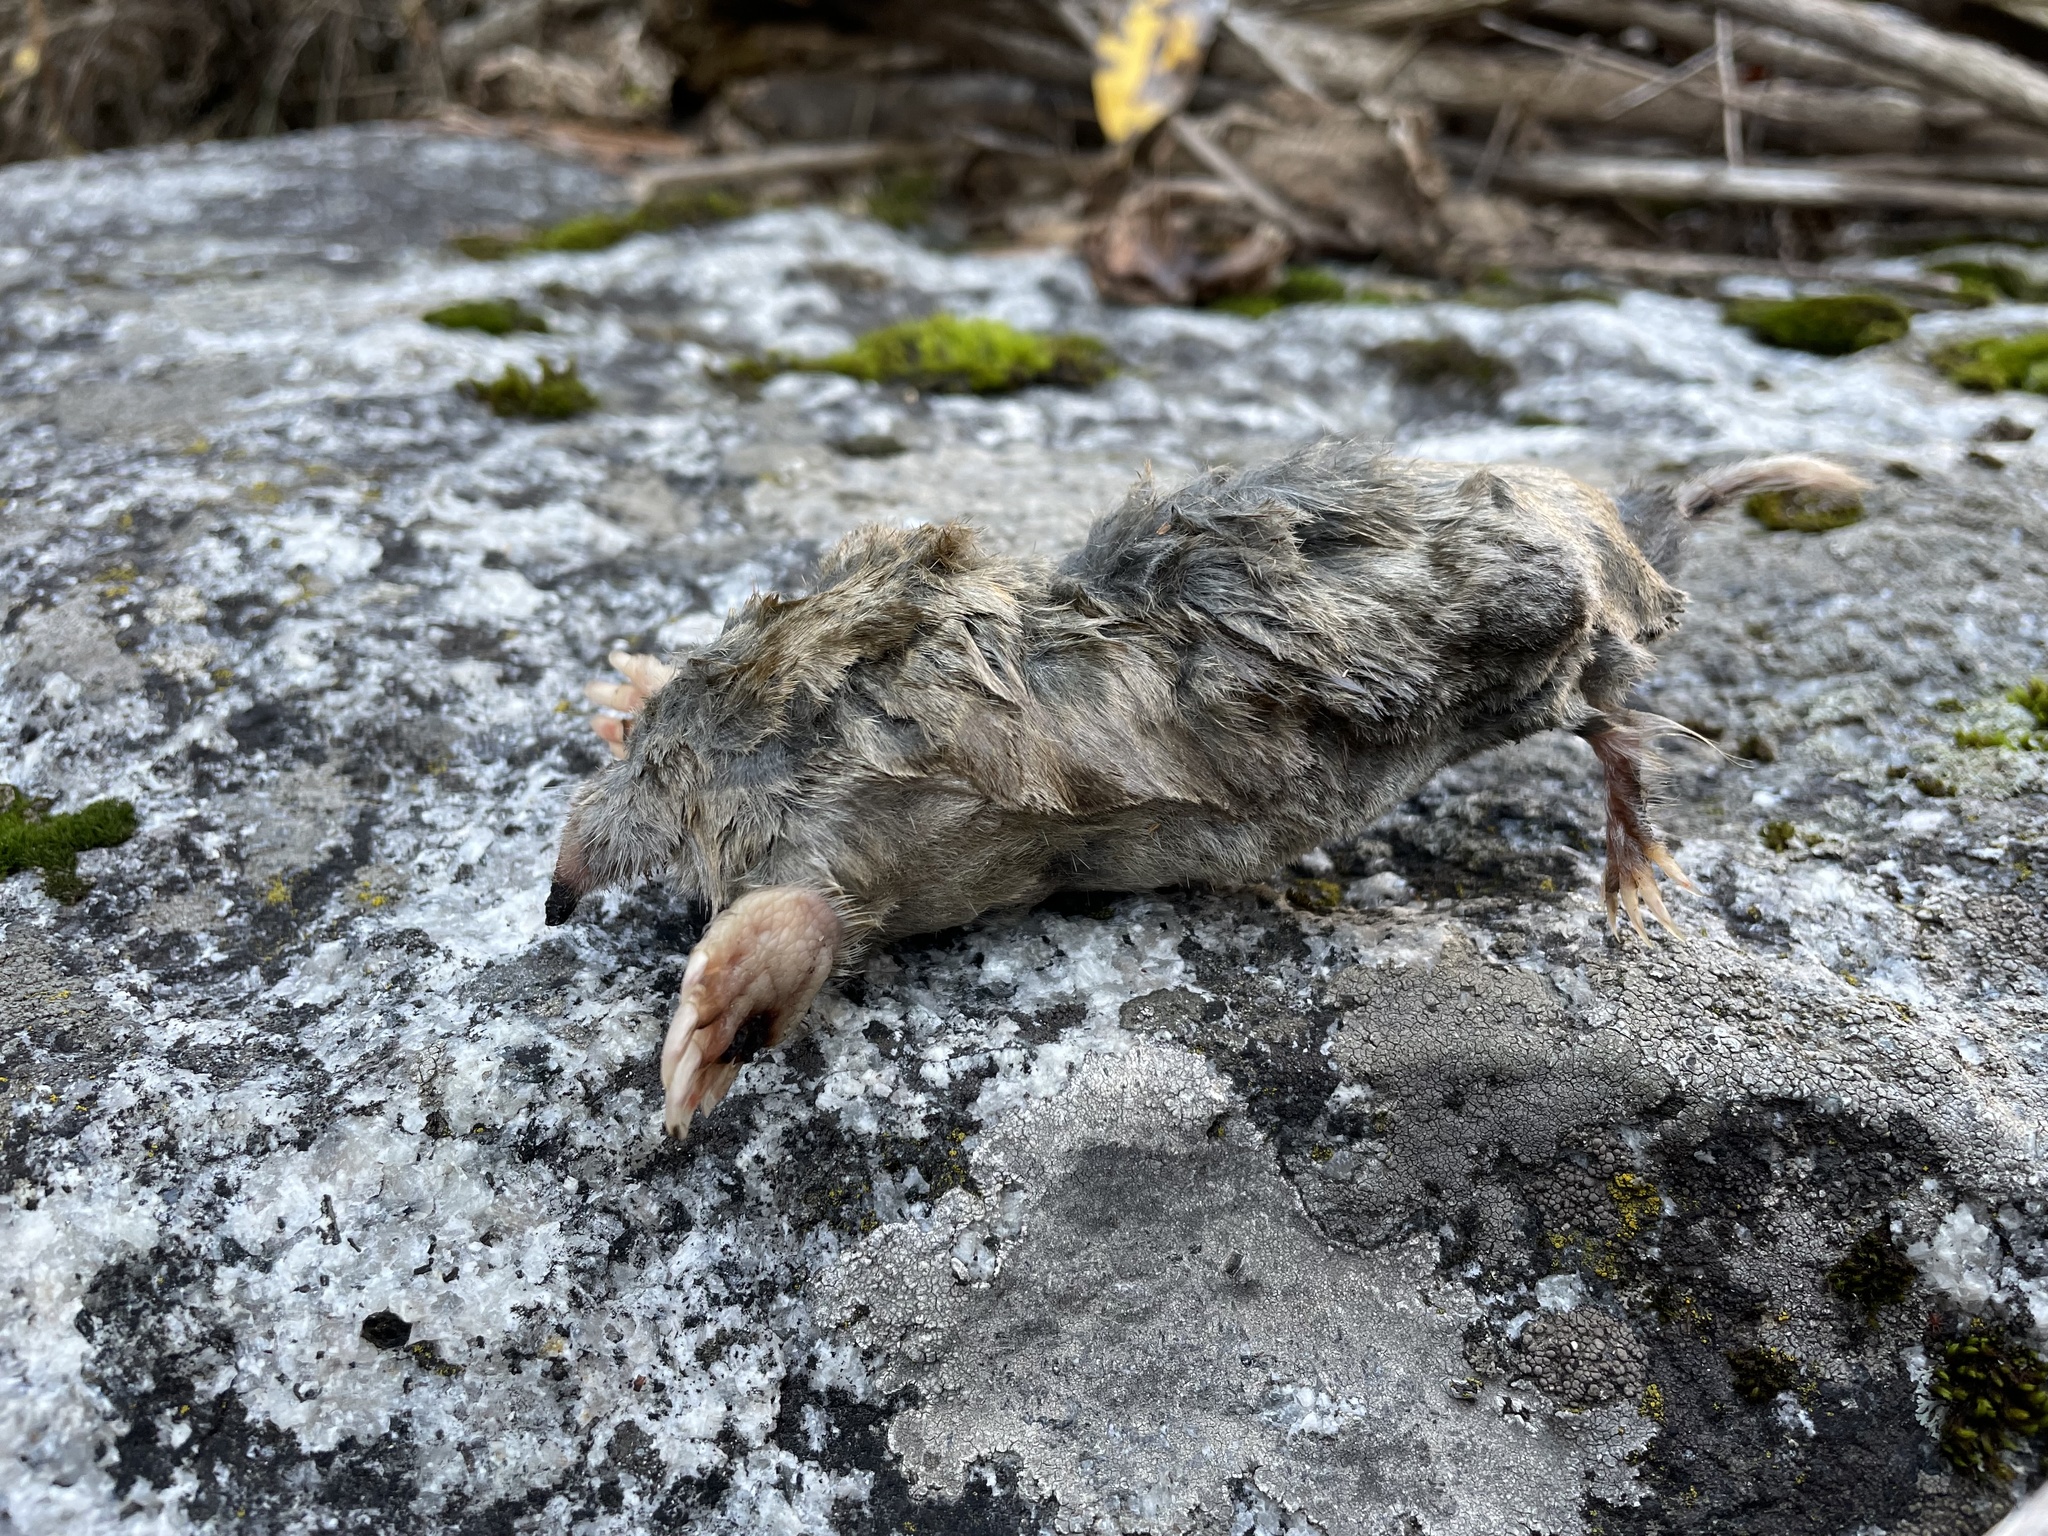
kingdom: Animalia
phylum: Chordata
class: Mammalia
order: Soricomorpha
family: Talpidae
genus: Scapanus
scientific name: Scapanus latimanus
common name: Broad-footed mole
